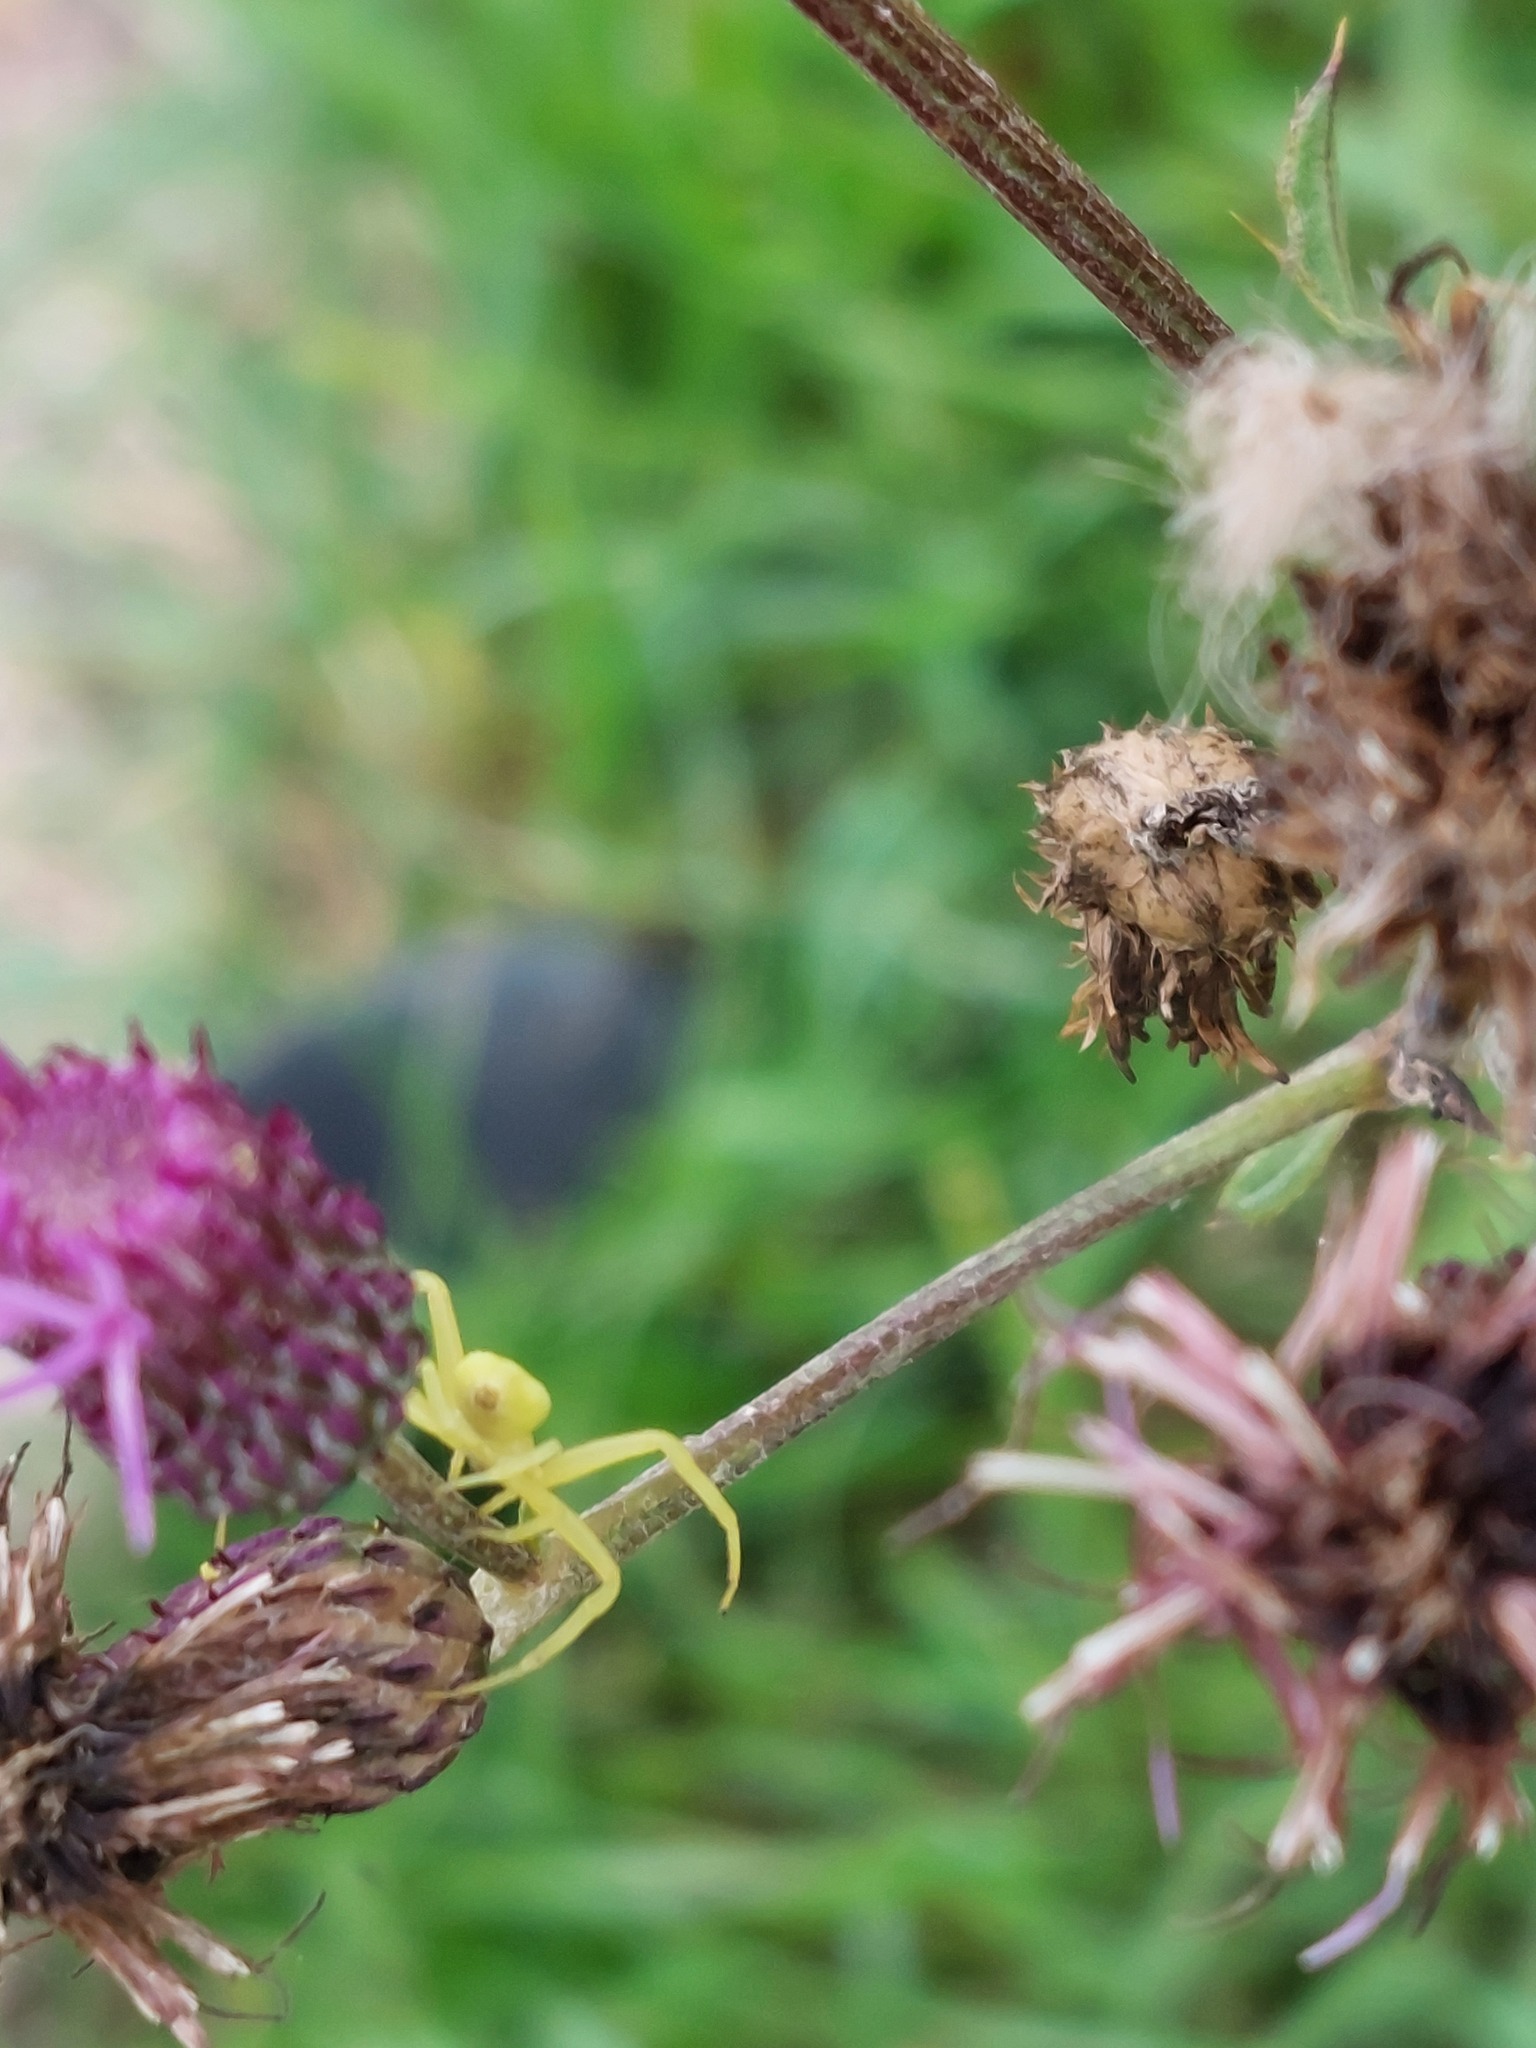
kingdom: Animalia
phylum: Arthropoda
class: Arachnida
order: Araneae
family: Thomisidae
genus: Misumena
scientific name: Misumena vatia
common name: Goldenrod crab spider
